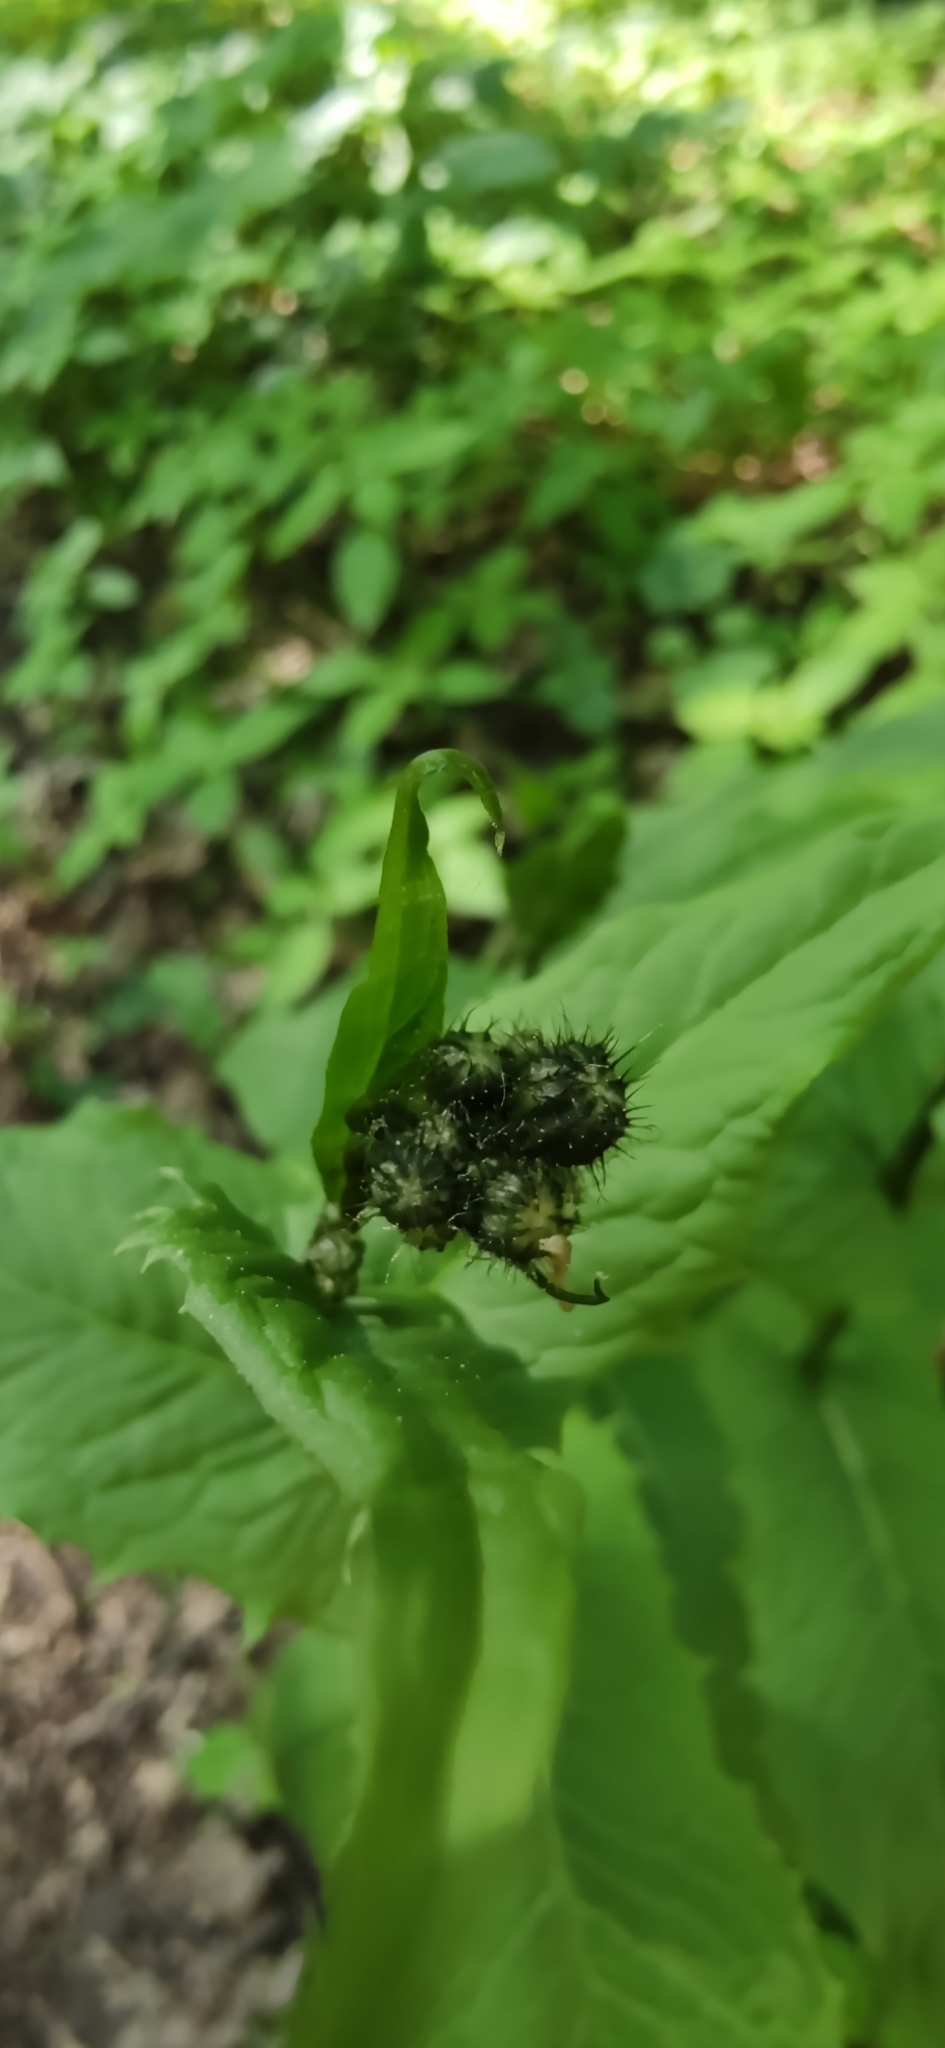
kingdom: Plantae
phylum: Tracheophyta
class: Magnoliopsida
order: Asterales
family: Asteraceae
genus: Crepis
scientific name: Crepis paludosa
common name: Marsh hawk's-beard
